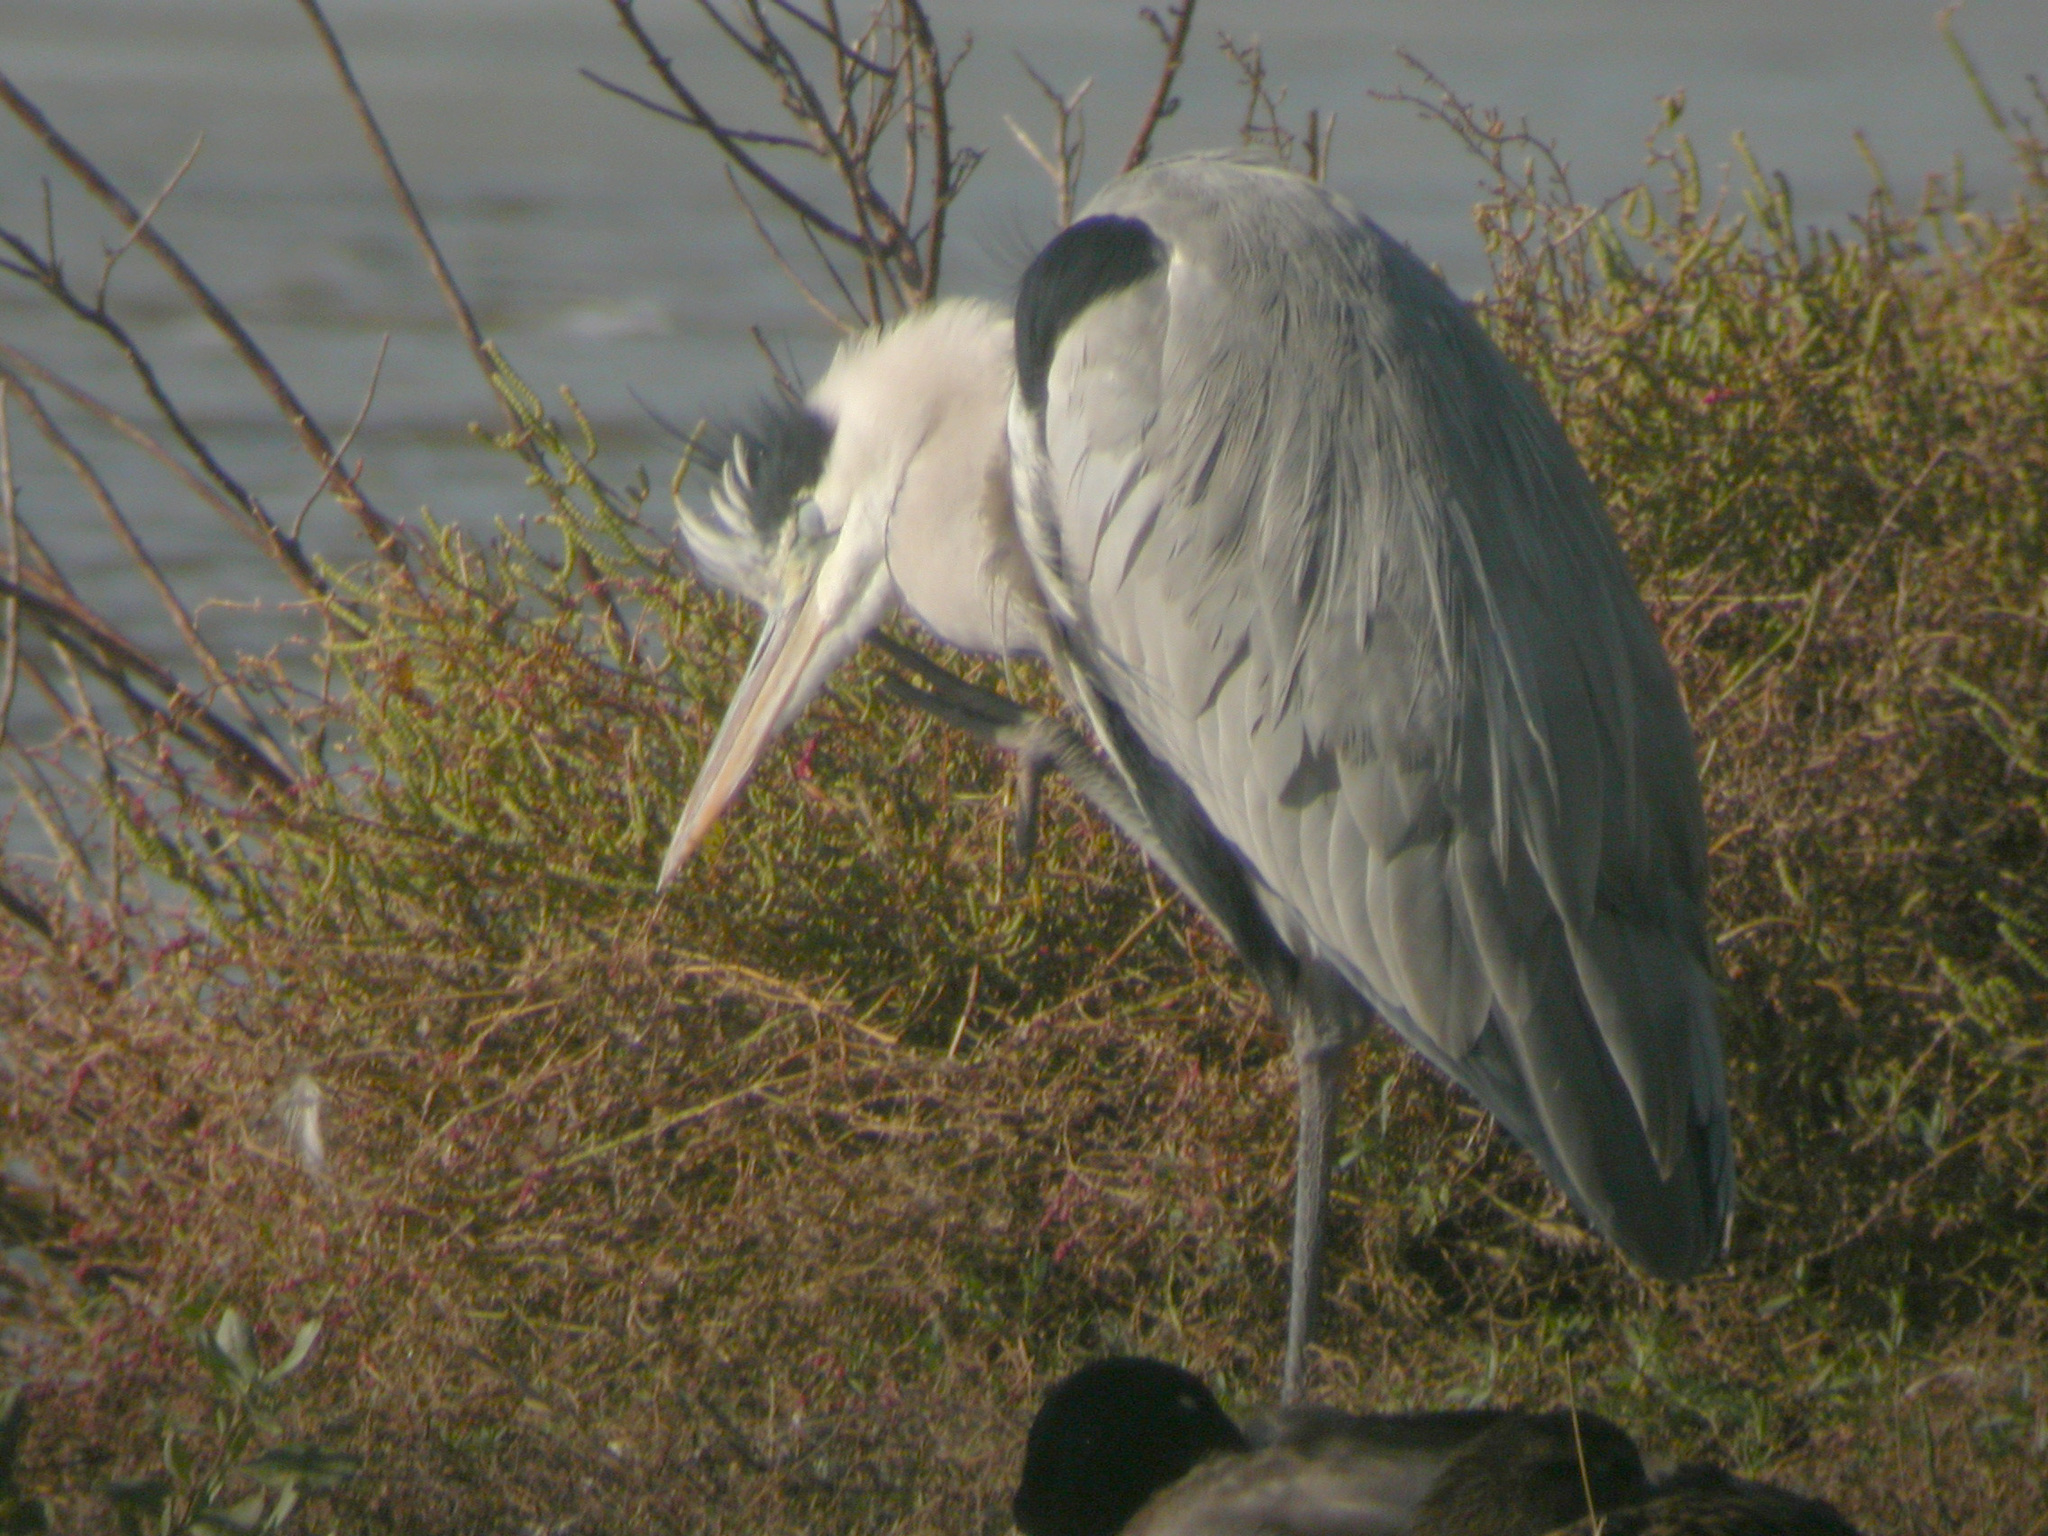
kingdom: Animalia
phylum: Chordata
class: Aves
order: Pelecaniformes
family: Ardeidae
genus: Ardea
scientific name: Ardea cinerea
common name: Grey heron
